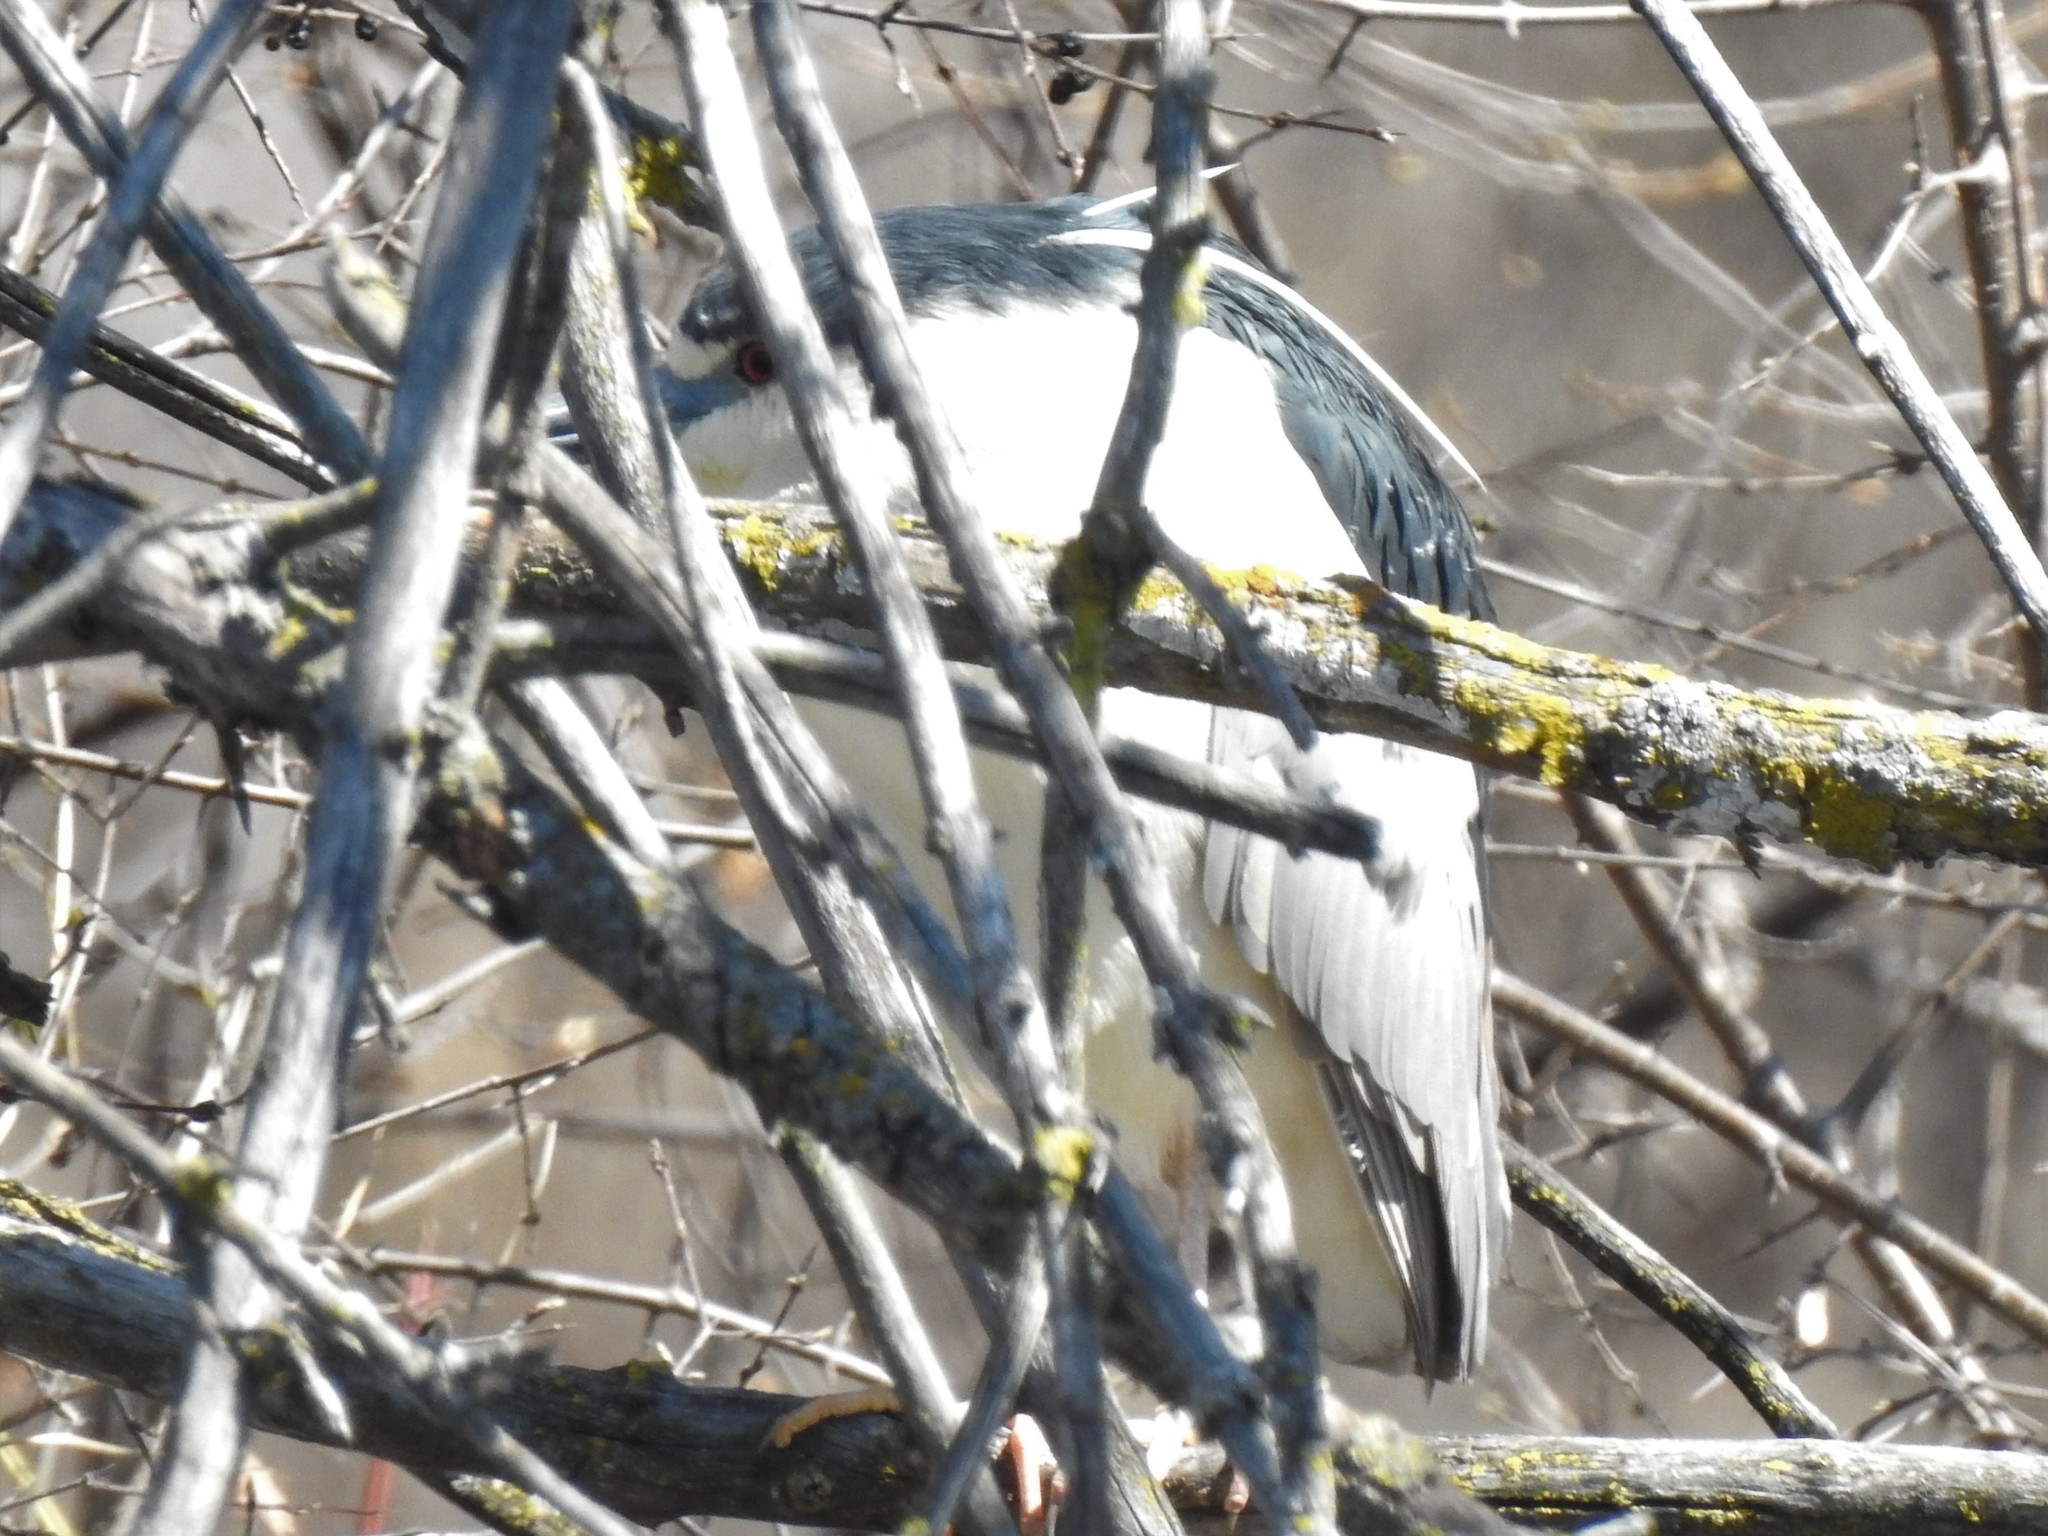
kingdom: Animalia
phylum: Chordata
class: Aves
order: Pelecaniformes
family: Ardeidae
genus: Nycticorax
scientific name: Nycticorax nycticorax
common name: Black-crowned night heron
